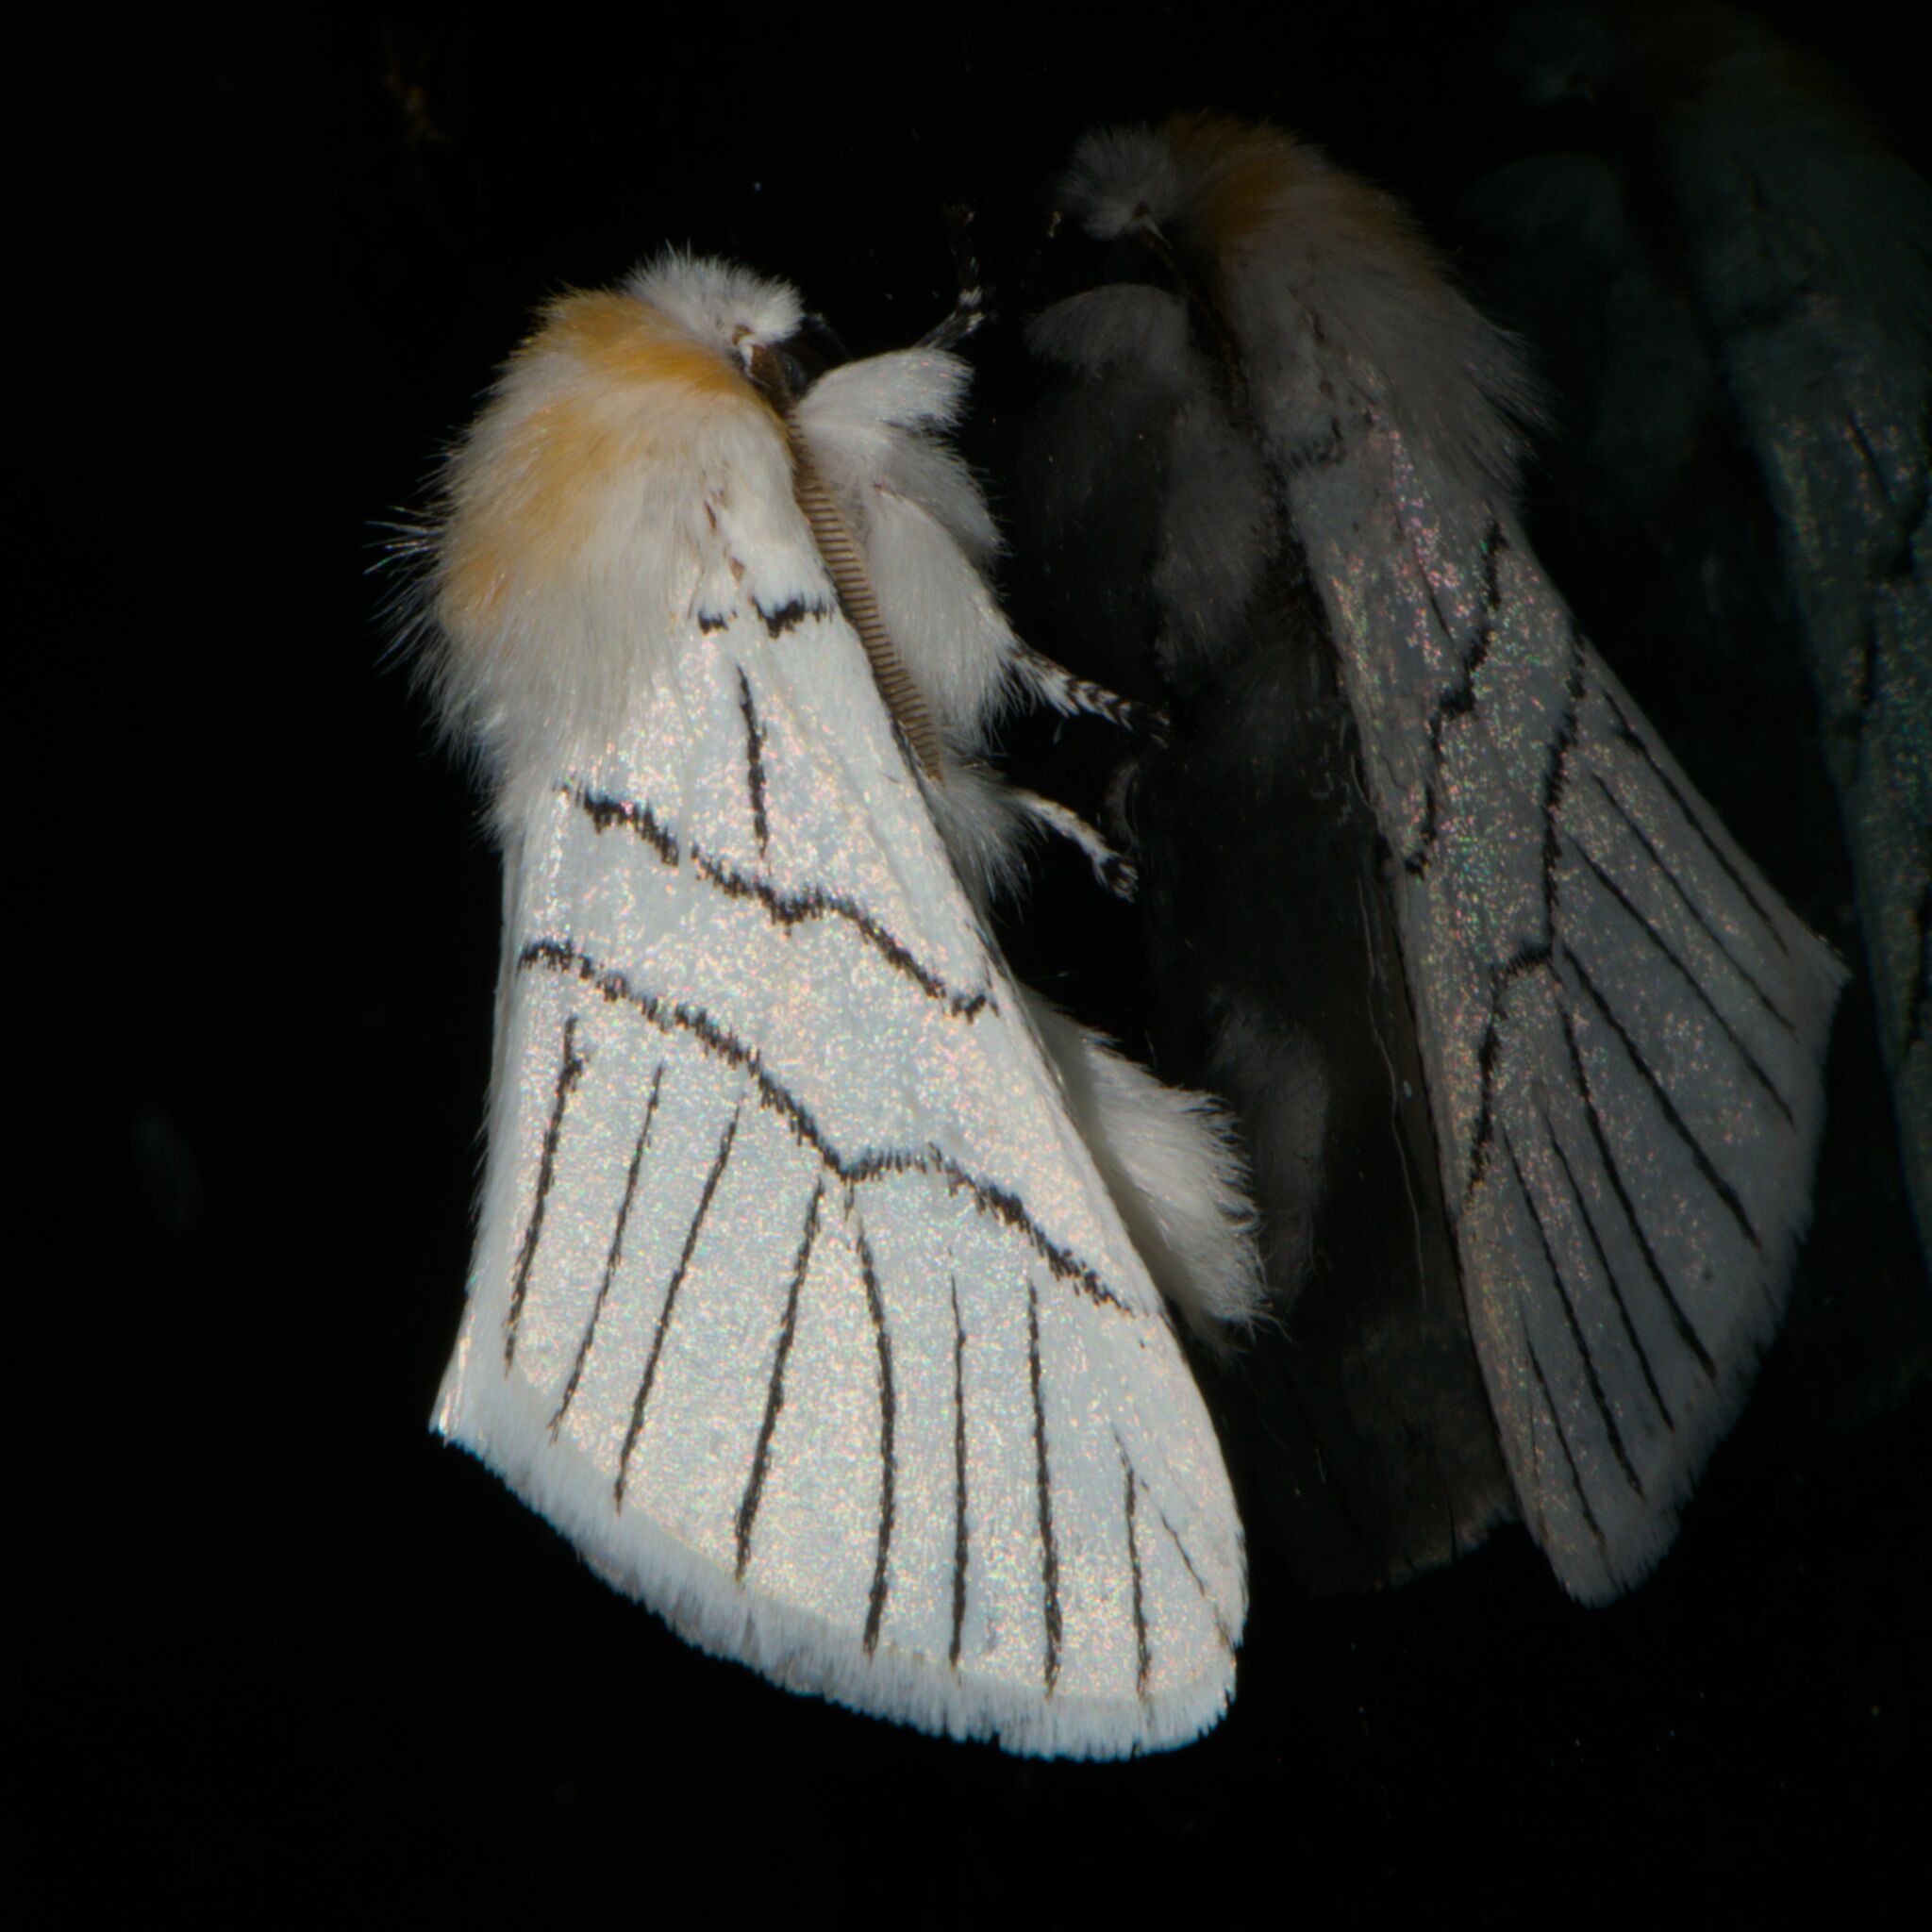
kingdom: Animalia
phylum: Arthropoda
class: Insecta
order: Lepidoptera
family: Notodontidae
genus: Oligoclona
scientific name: Oligoclona chrysolopha
